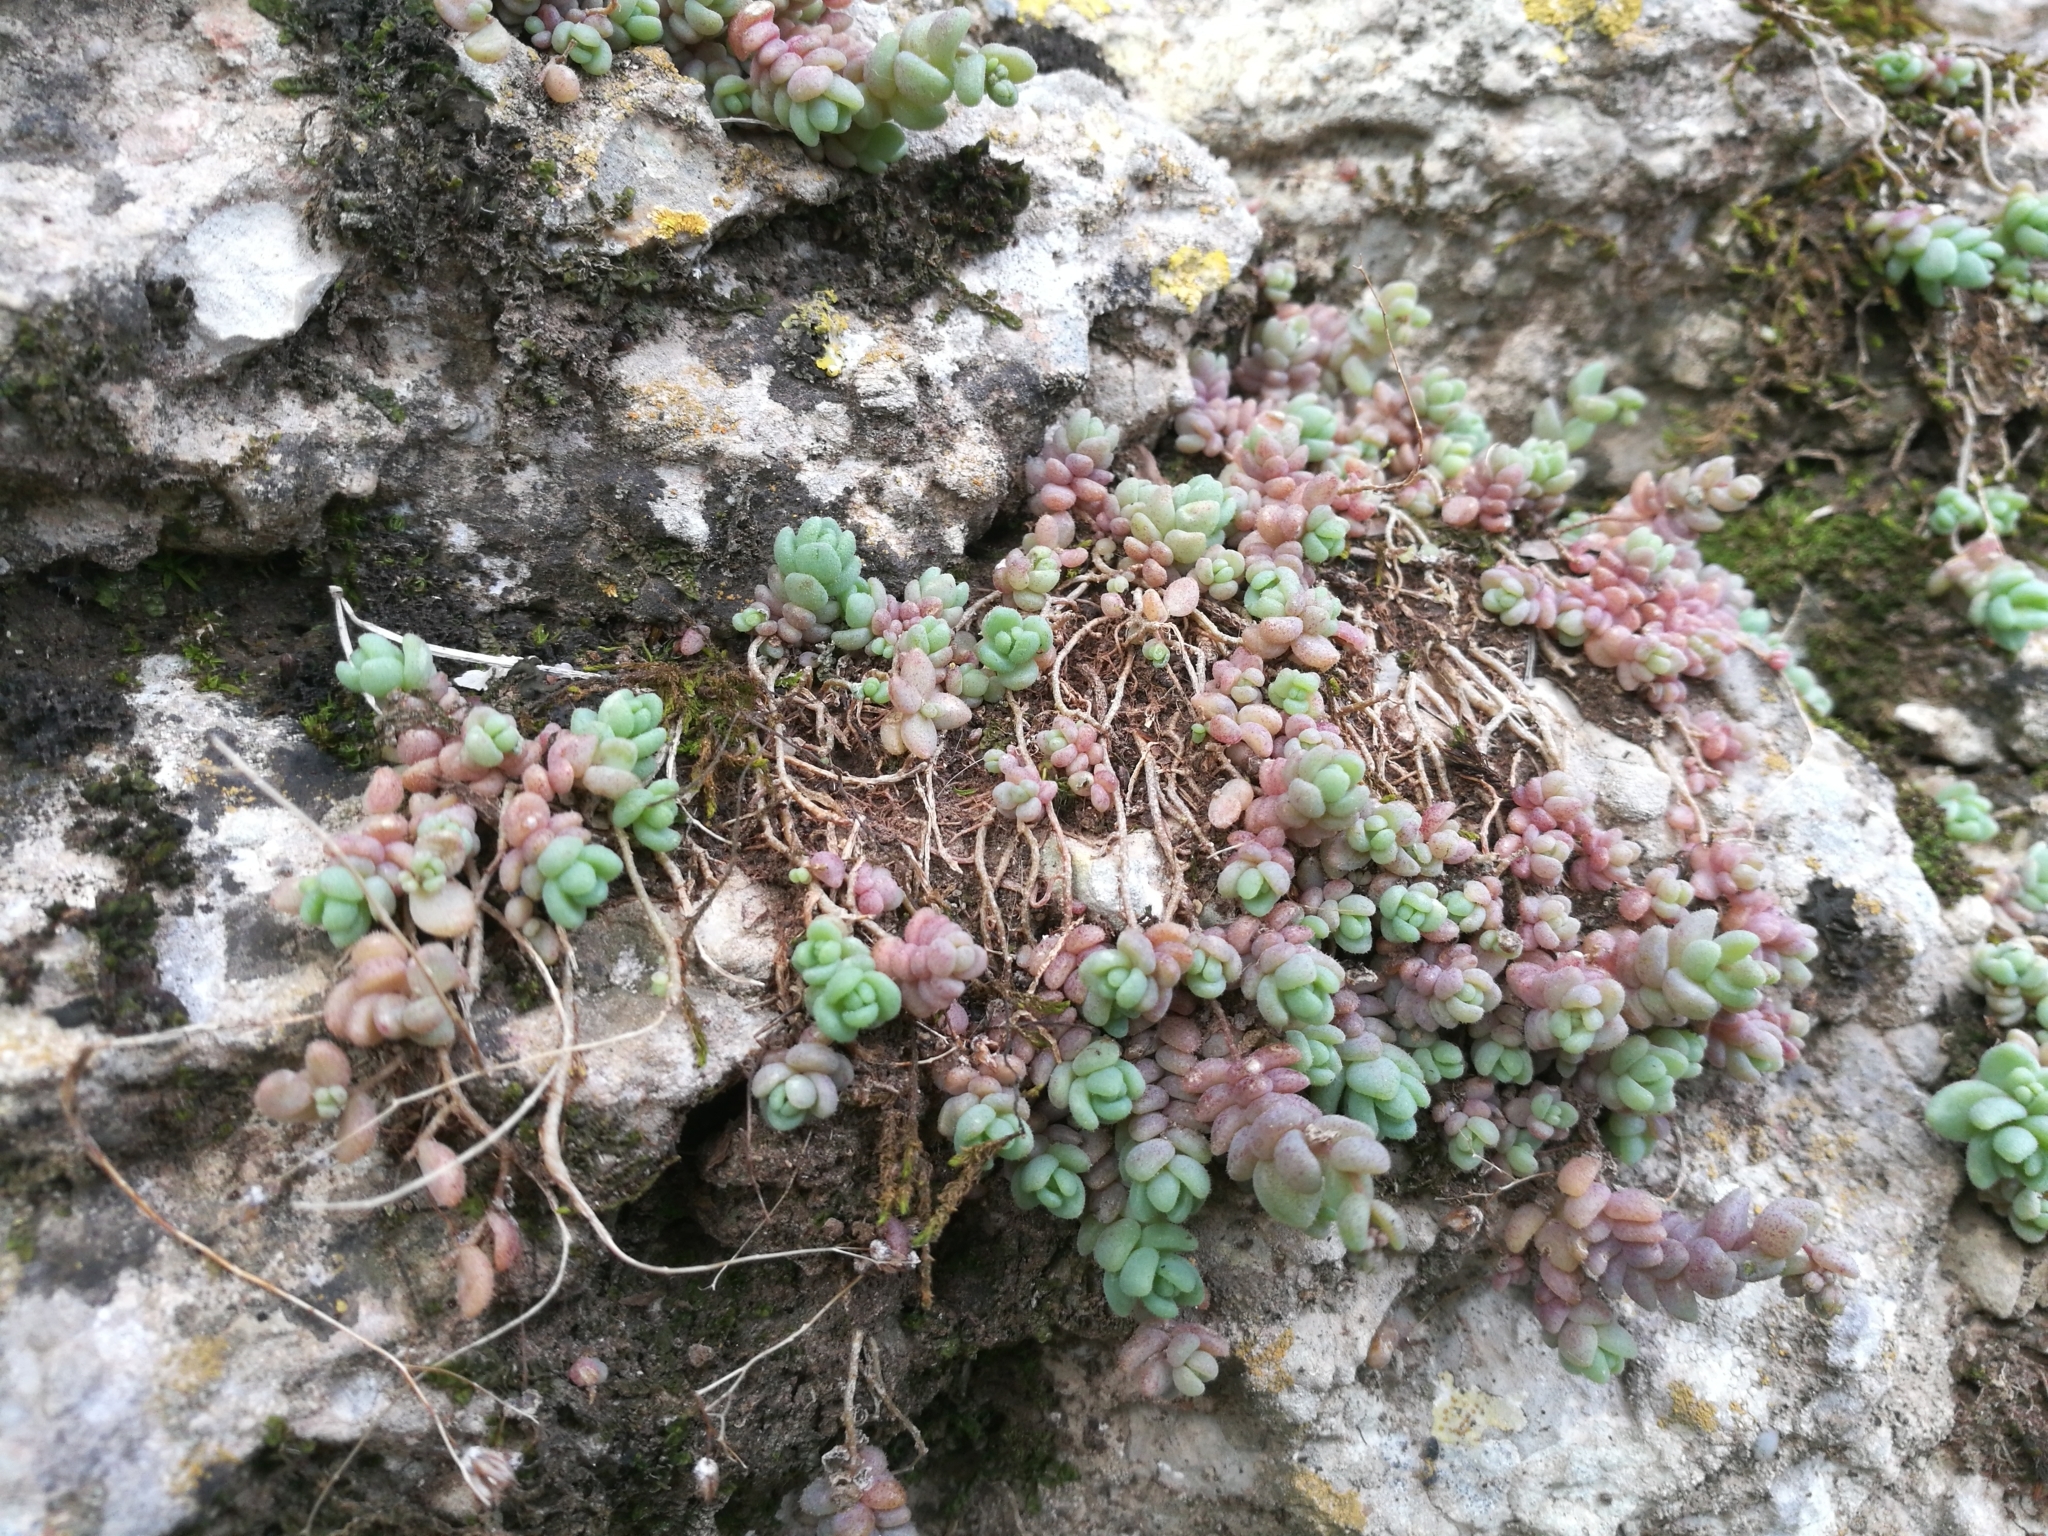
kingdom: Plantae
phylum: Tracheophyta
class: Magnoliopsida
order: Saxifragales
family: Crassulaceae
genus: Sedum
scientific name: Sedum dasyphyllum
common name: Thick-leaf stonecrop
